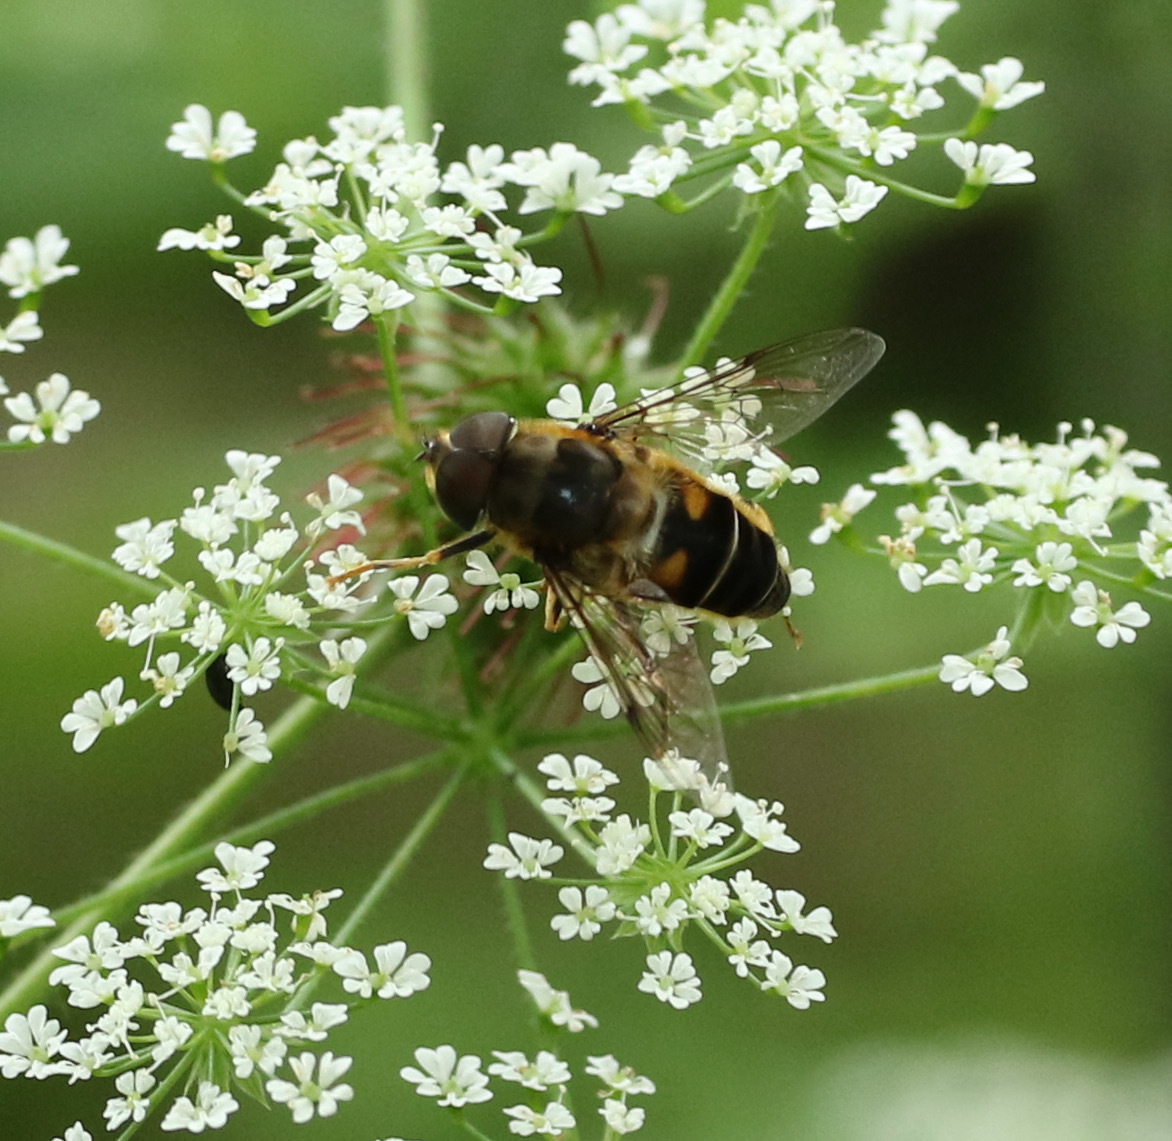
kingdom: Animalia
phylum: Arthropoda
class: Insecta
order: Diptera
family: Syrphidae
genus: Eristalis
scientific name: Eristalis pertinax
